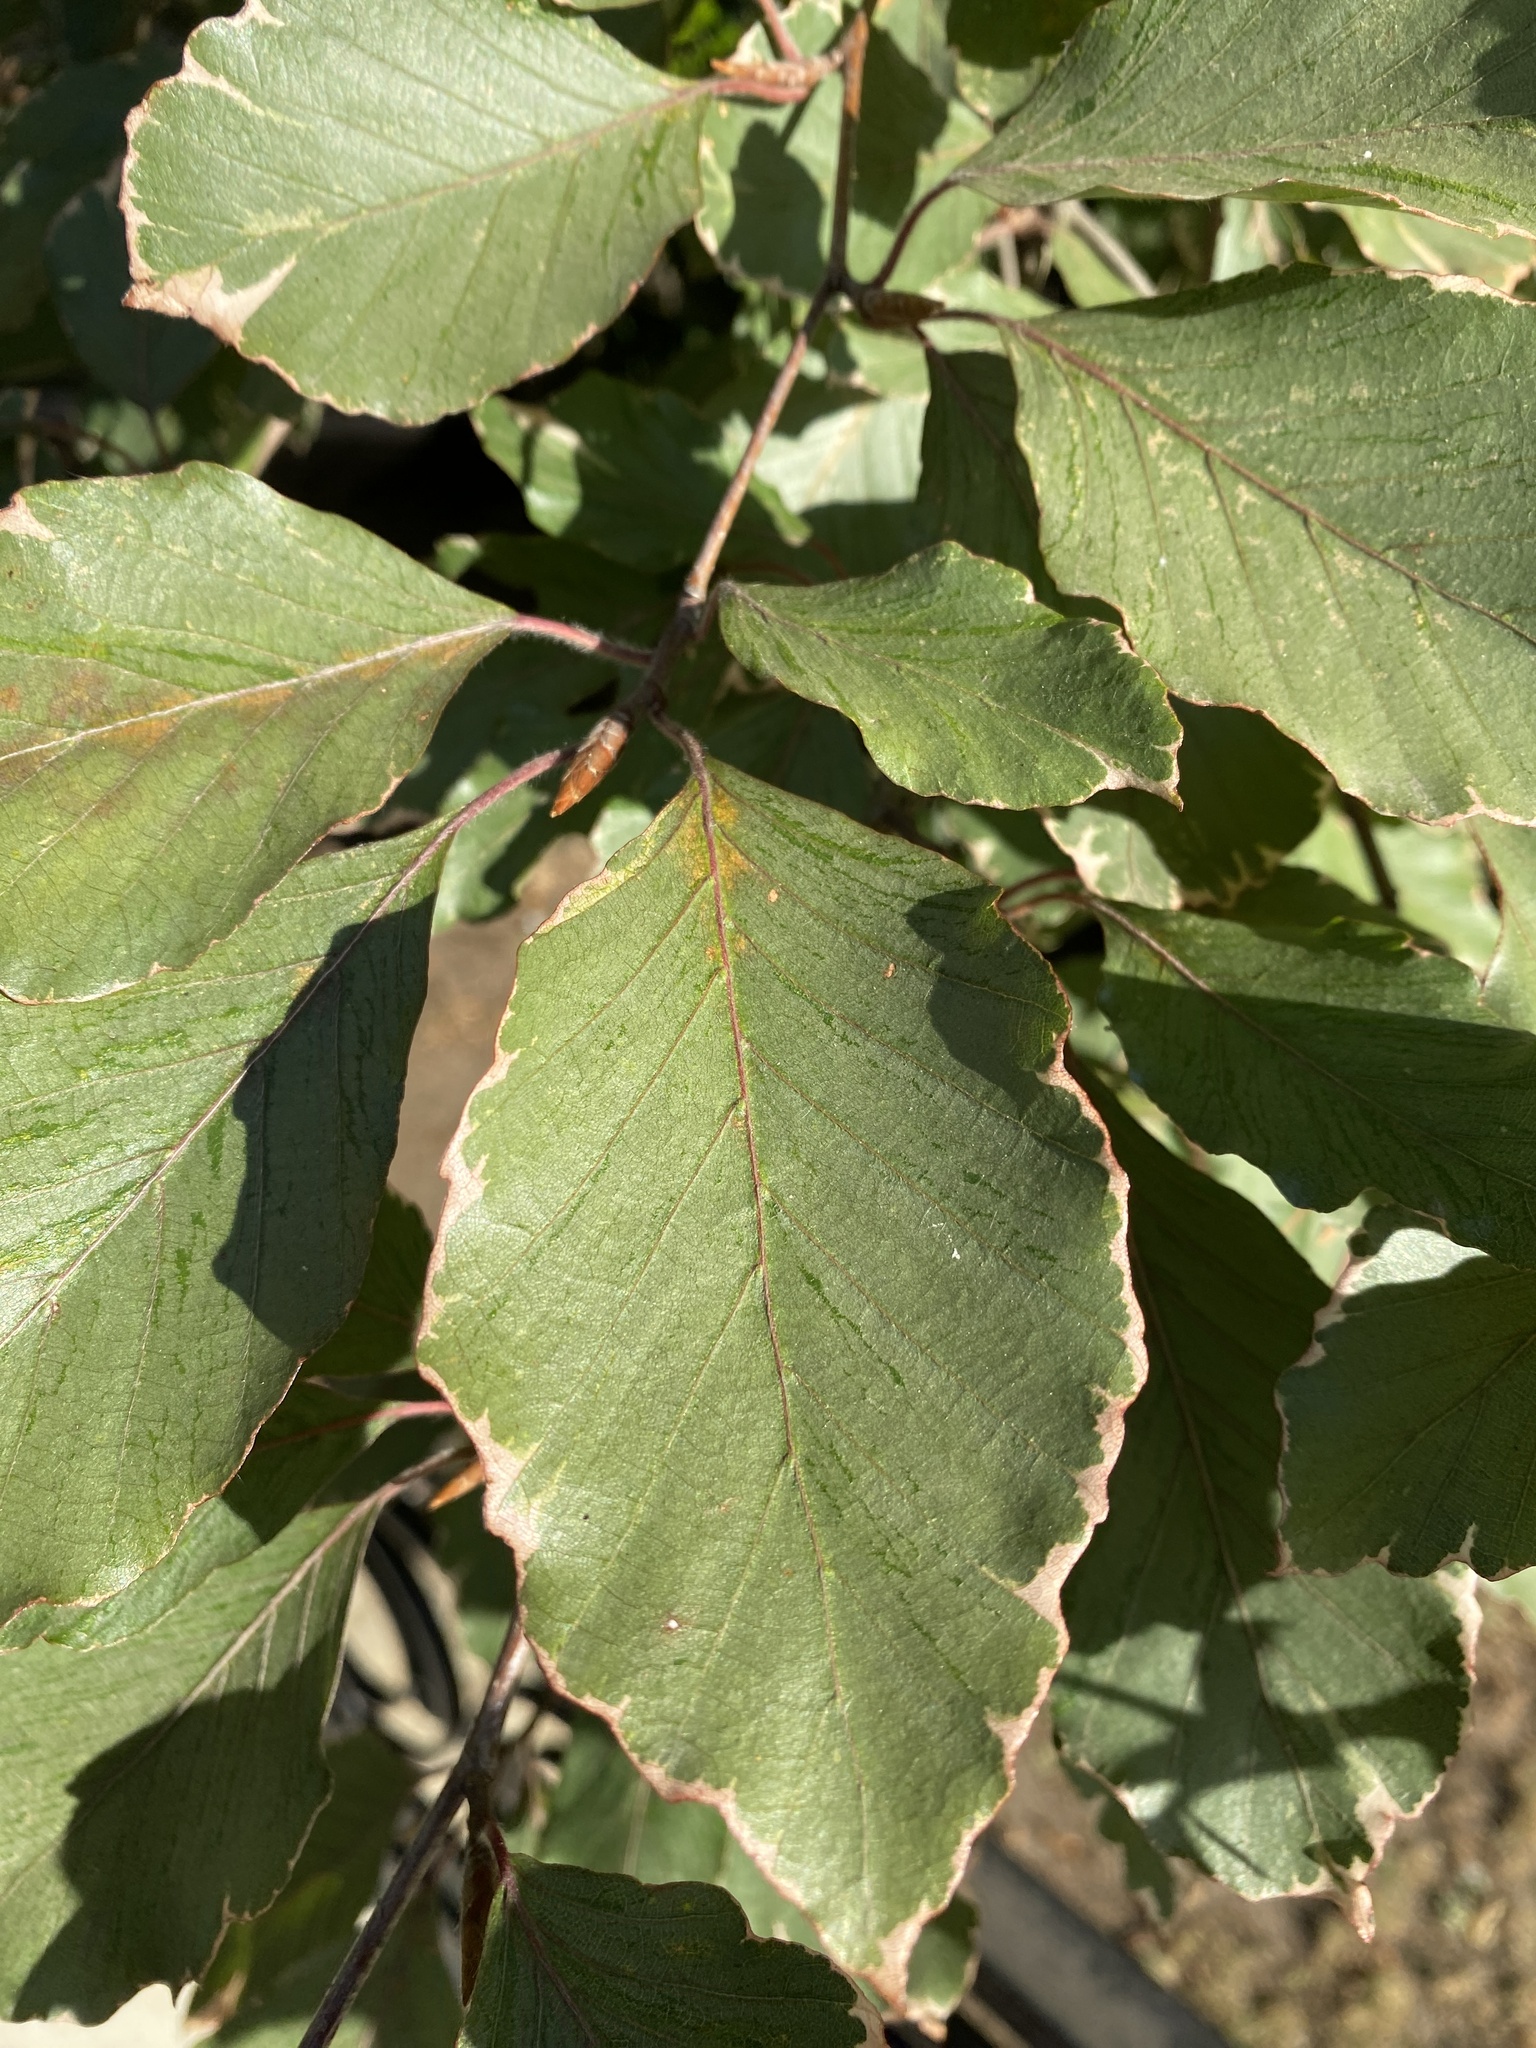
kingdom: Plantae
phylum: Tracheophyta
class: Magnoliopsida
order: Fagales
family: Fagaceae
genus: Fagus
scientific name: Fagus sylvatica
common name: Beech
